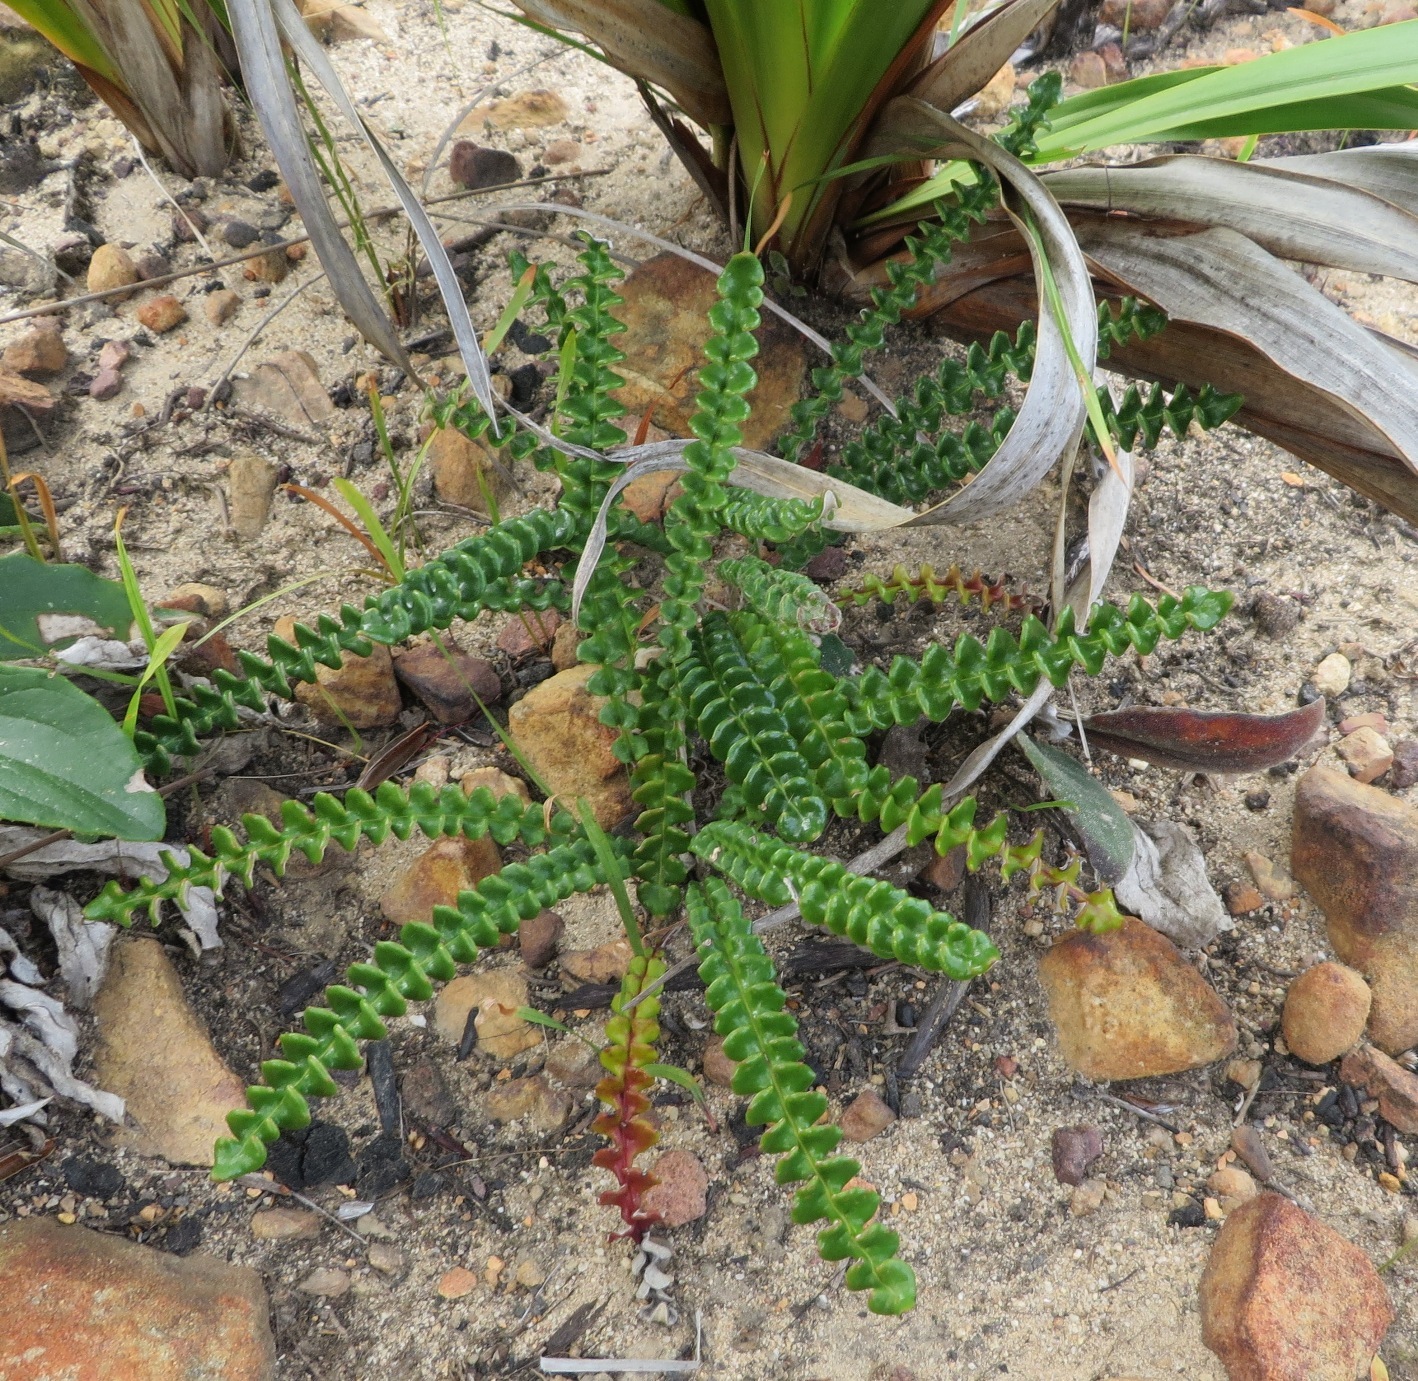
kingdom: Plantae
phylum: Tracheophyta
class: Magnoliopsida
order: Asterales
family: Asteraceae
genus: Gerbera
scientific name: Gerbera linnaei
